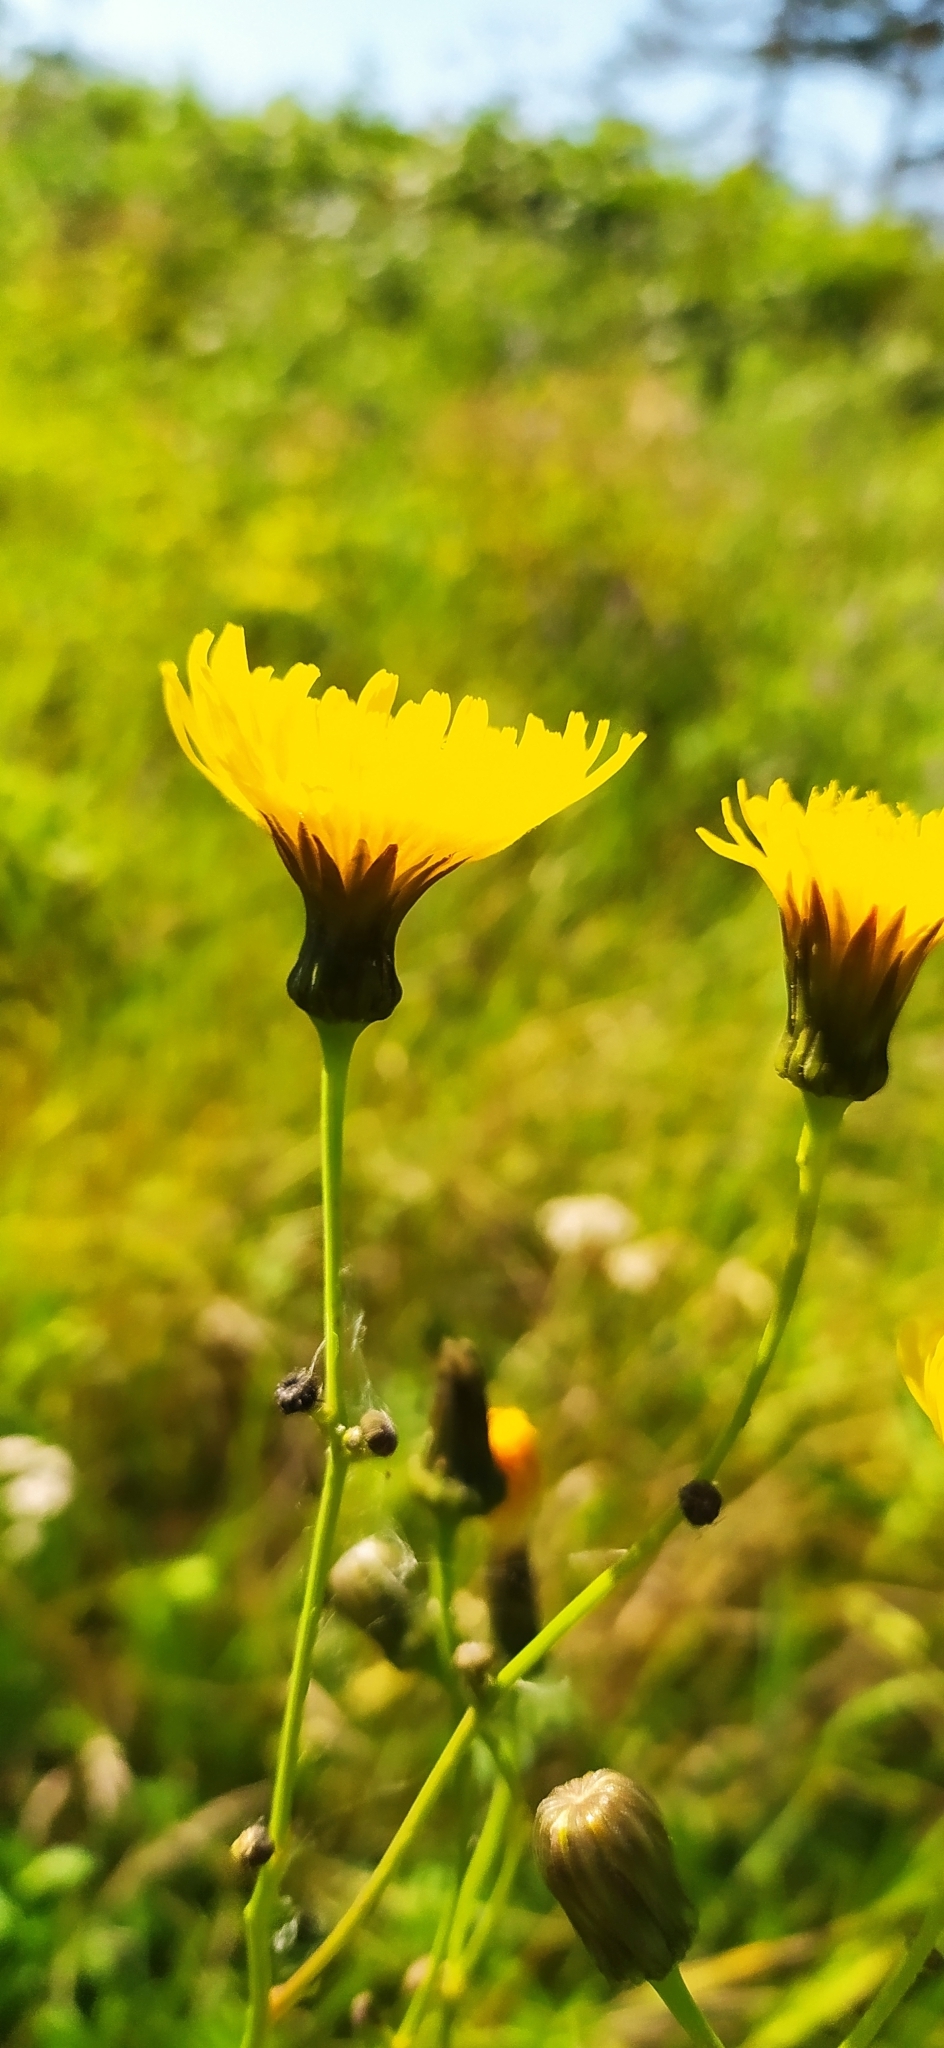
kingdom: Plantae
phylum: Tracheophyta
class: Magnoliopsida
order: Asterales
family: Asteraceae
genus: Sonchus
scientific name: Sonchus arvensis
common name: Perennial sow-thistle
